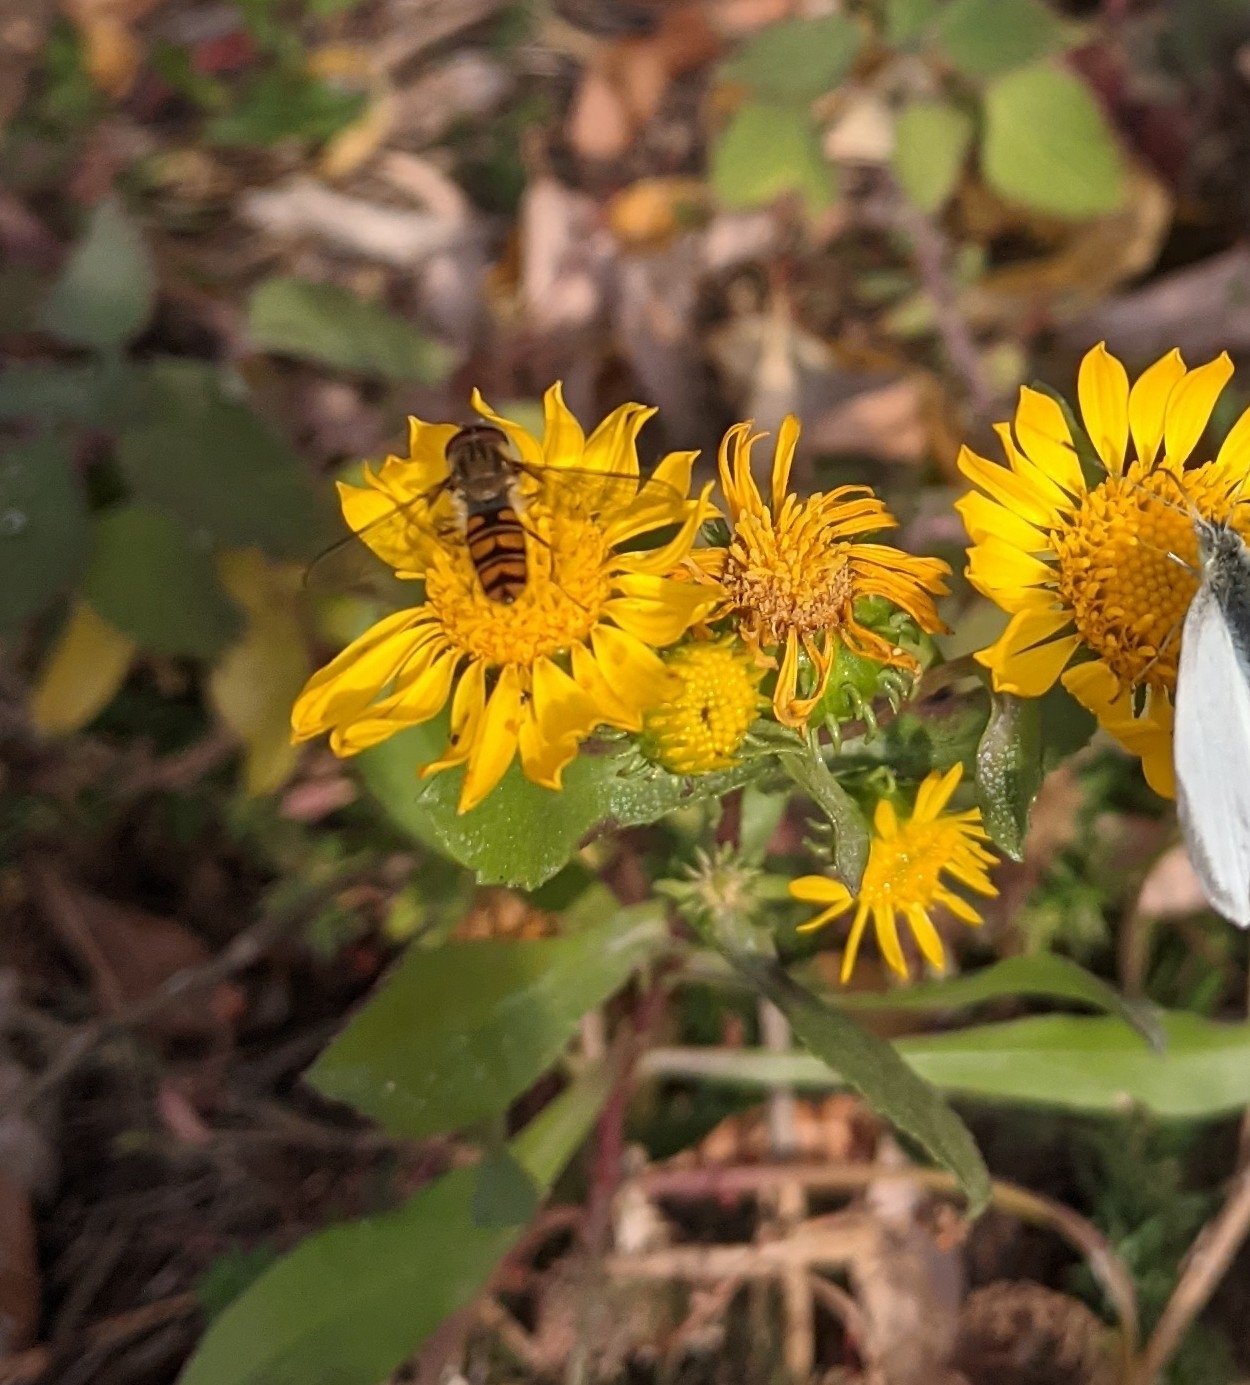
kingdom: Animalia
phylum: Arthropoda
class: Insecta
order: Diptera
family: Syrphidae
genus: Episyrphus
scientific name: Episyrphus balteatus
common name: Marmalade hoverfly
